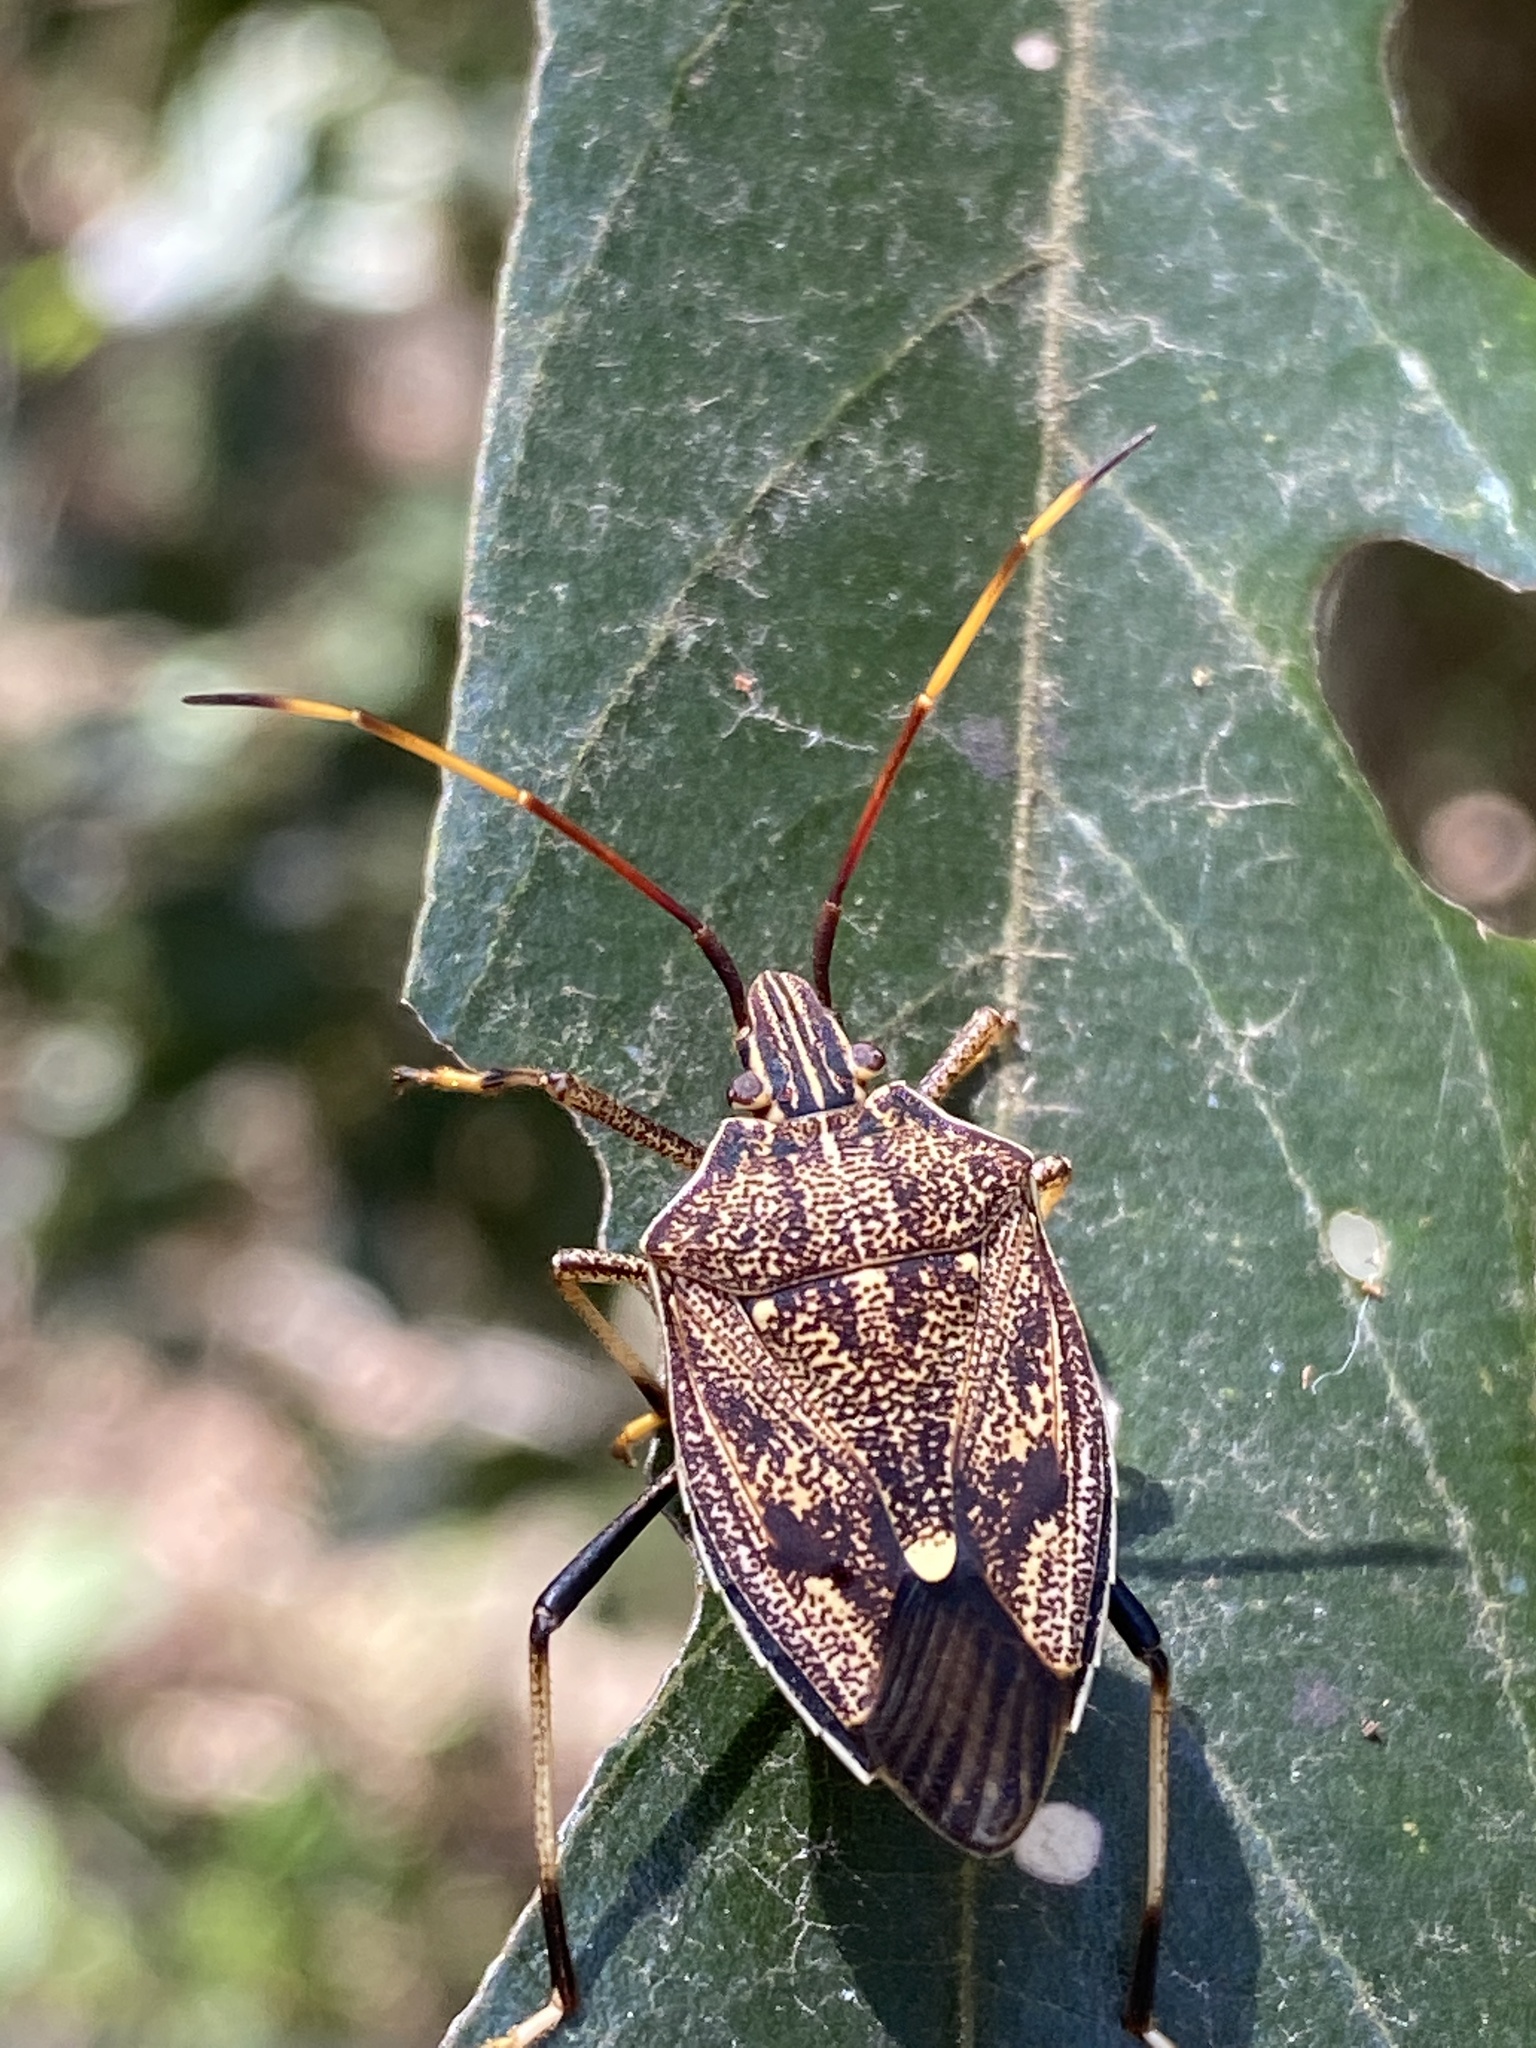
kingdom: Animalia
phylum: Arthropoda
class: Insecta
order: Hemiptera
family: Pentatomidae
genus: Poecilometis
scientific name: Poecilometis
